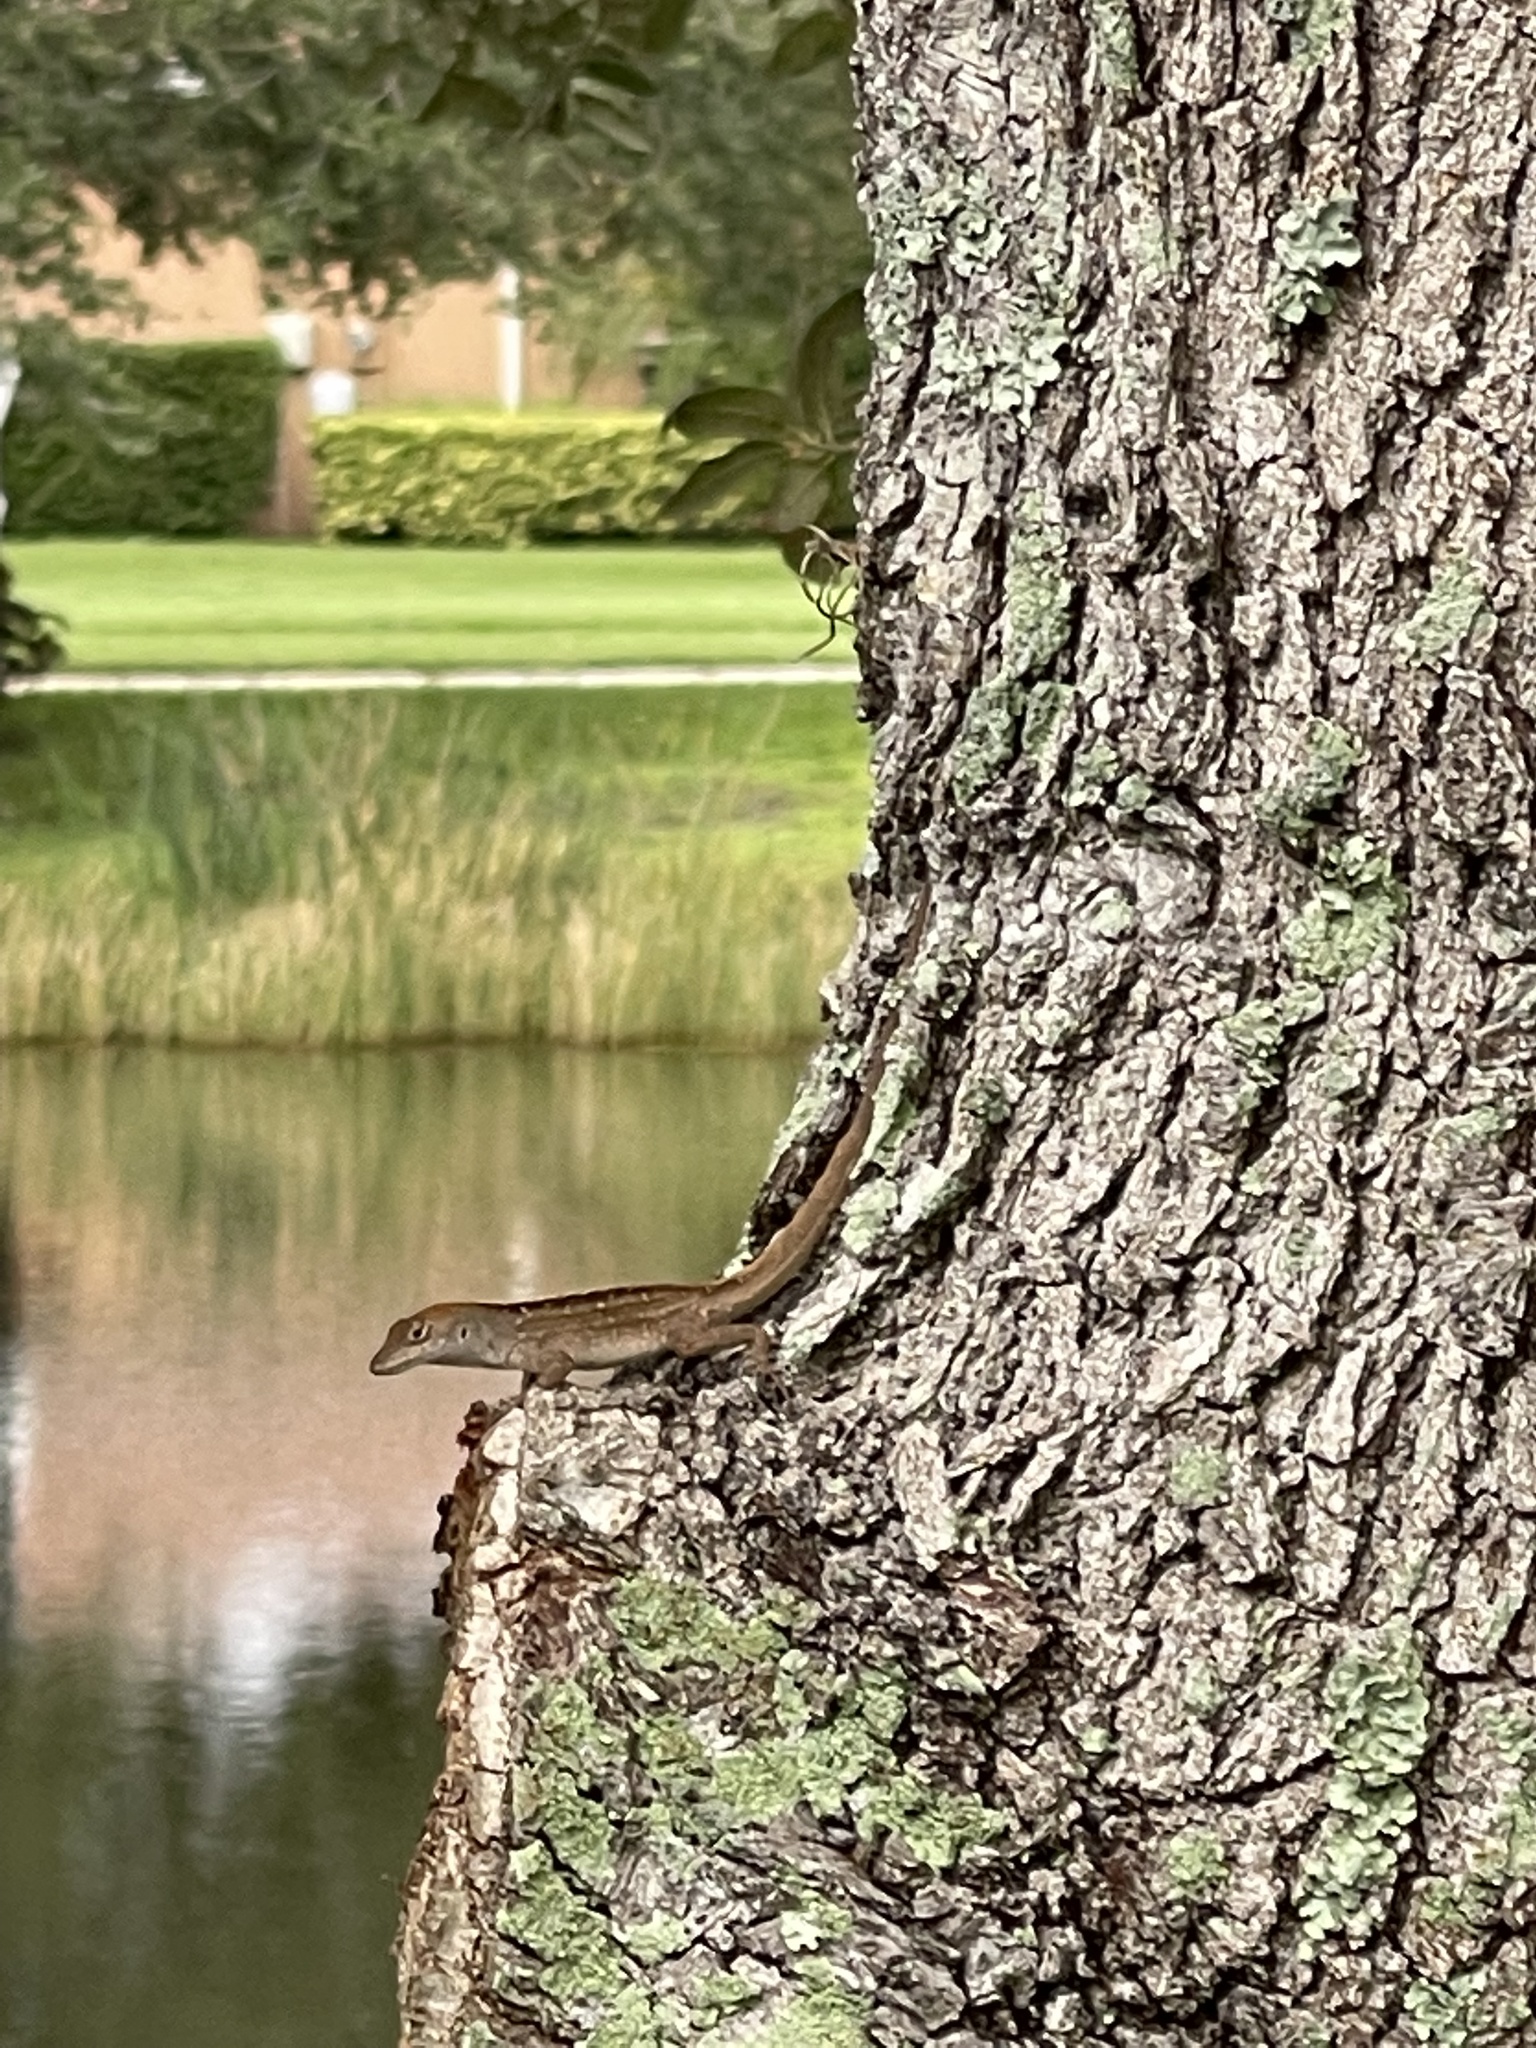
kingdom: Animalia
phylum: Chordata
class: Squamata
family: Dactyloidae
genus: Anolis
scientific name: Anolis sagrei
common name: Brown anole
